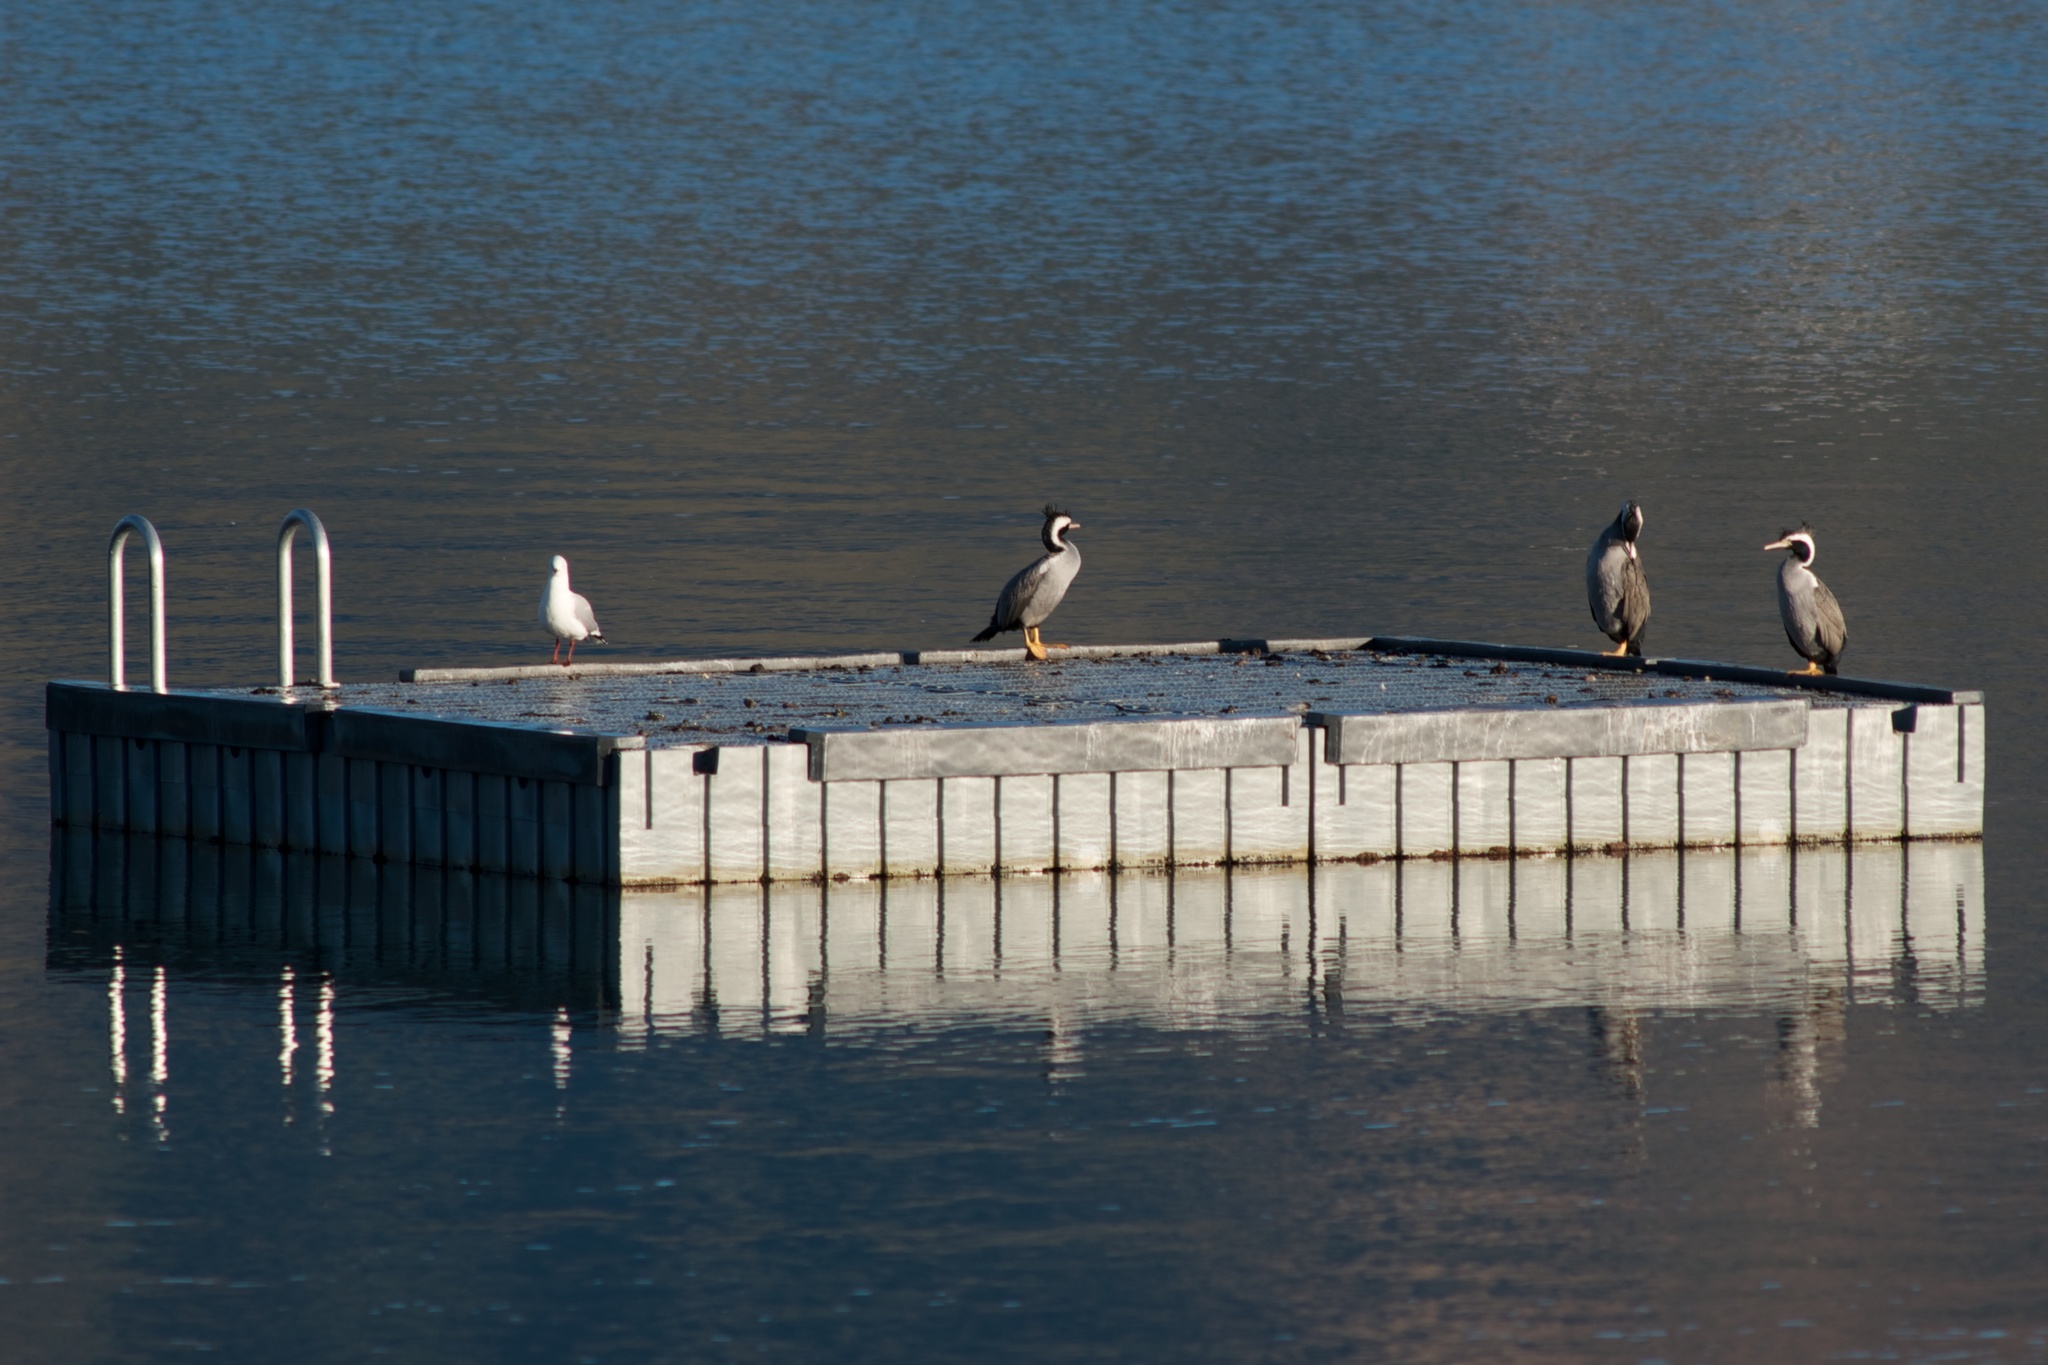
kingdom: Animalia
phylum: Chordata
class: Aves
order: Suliformes
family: Phalacrocoracidae
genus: Phalacrocorax
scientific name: Phalacrocorax punctatus
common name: Spotted shag
